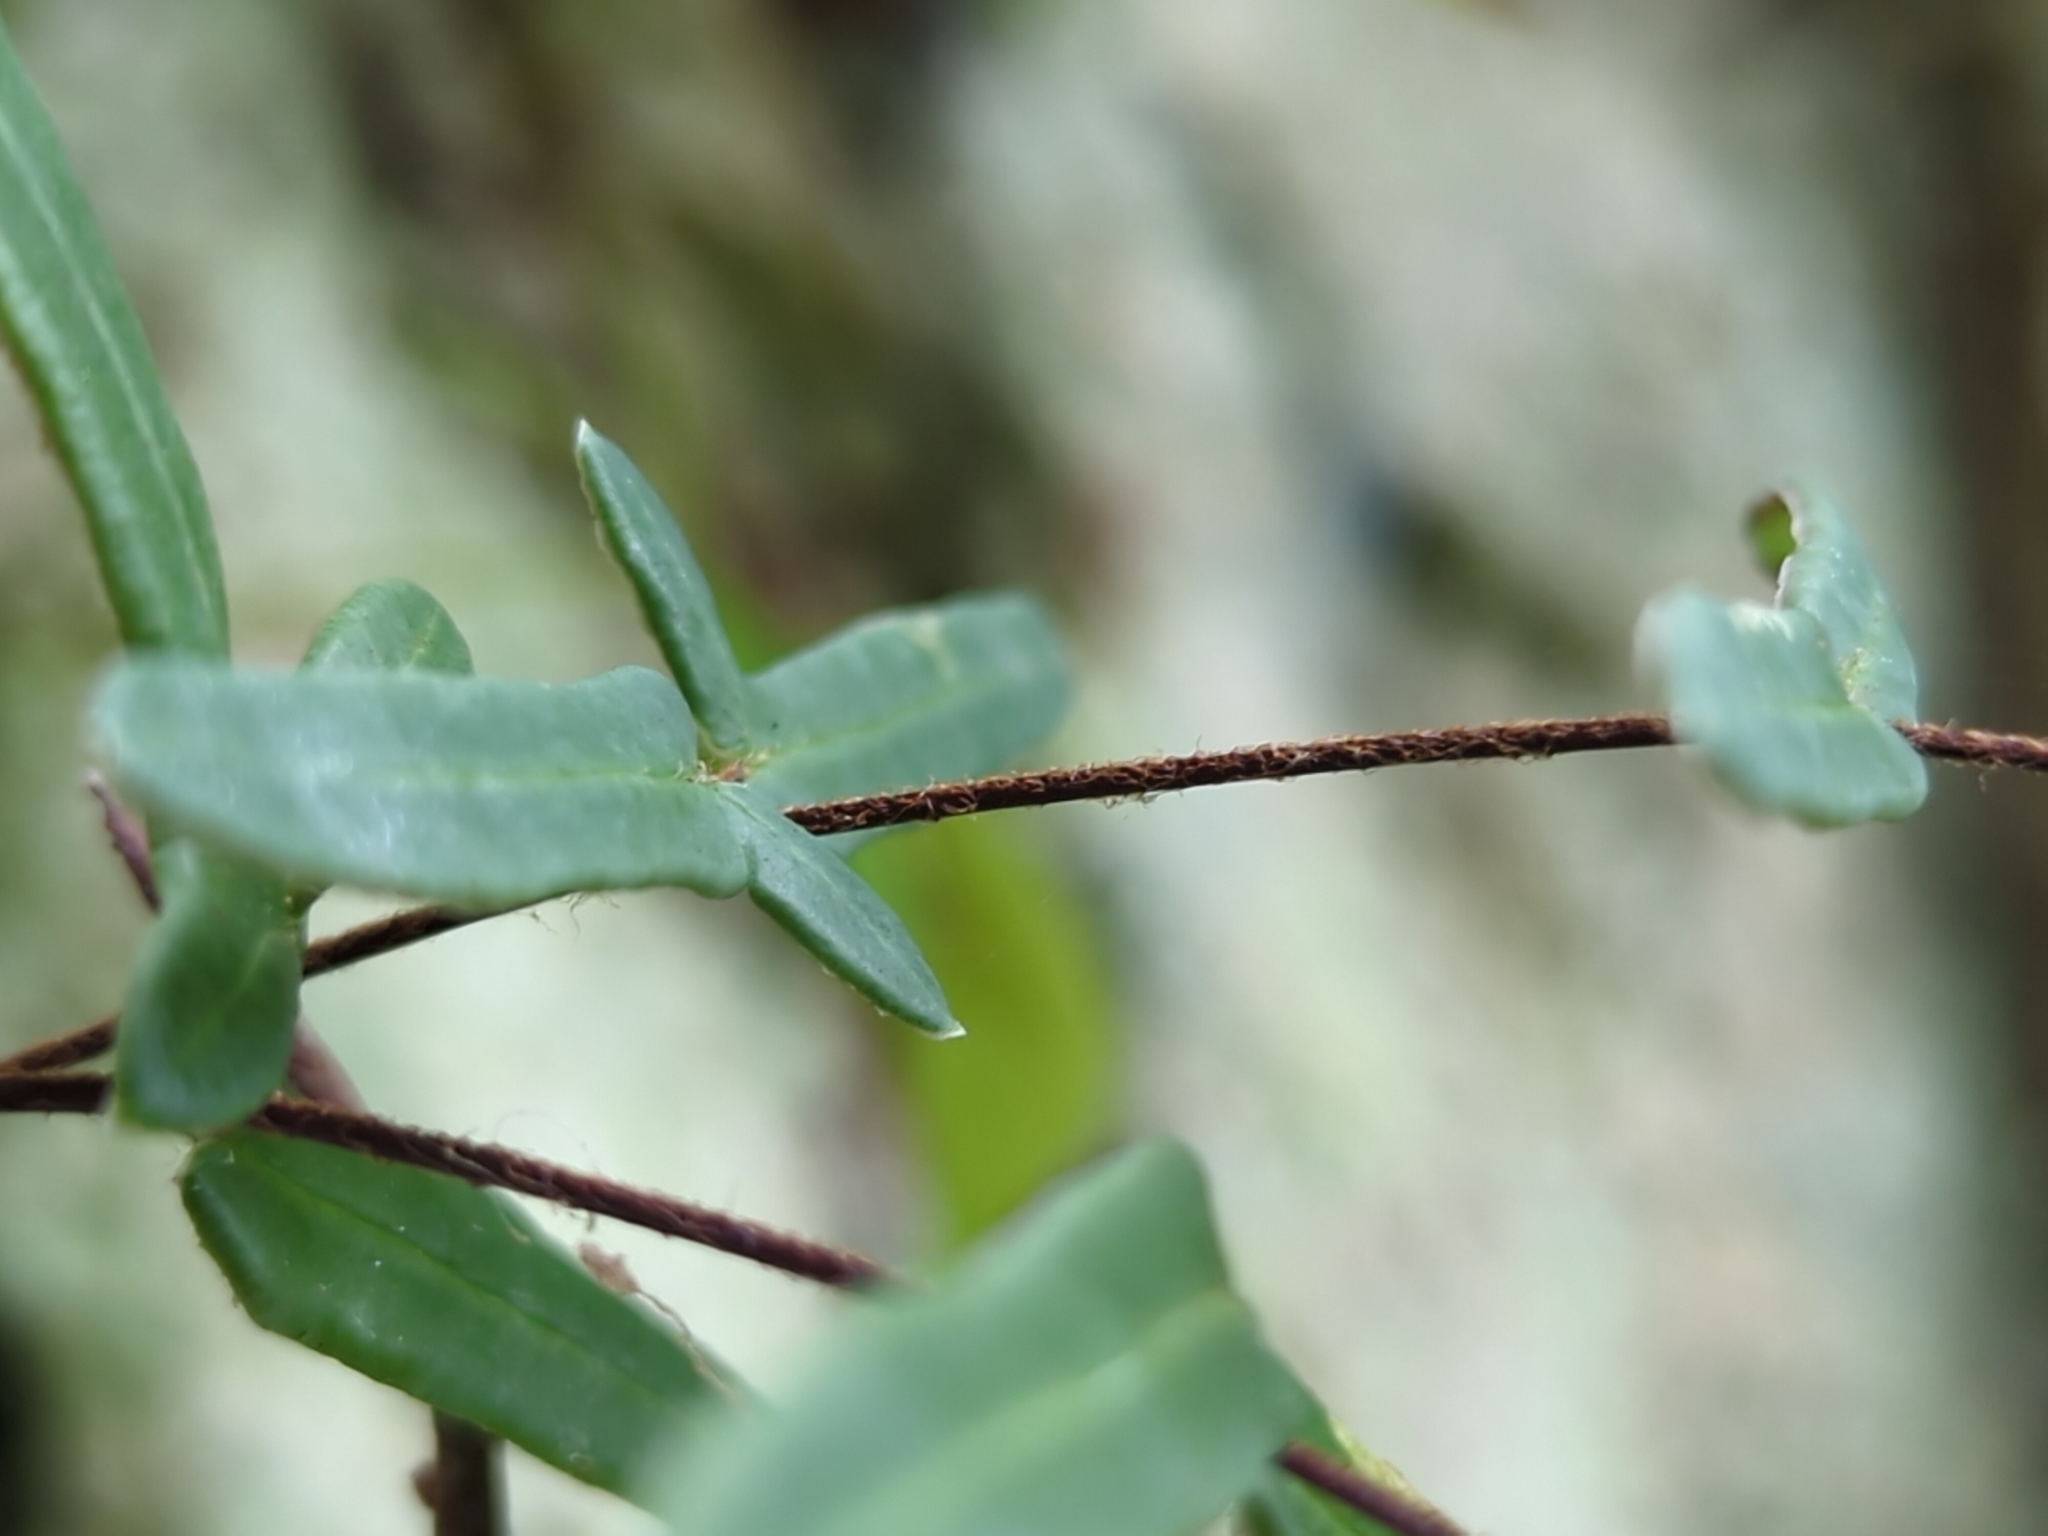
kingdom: Plantae
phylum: Tracheophyta
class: Polypodiopsida
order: Polypodiales
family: Pteridaceae
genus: Pellaea
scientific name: Pellaea atropurpurea
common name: Hairy cliffbrake
